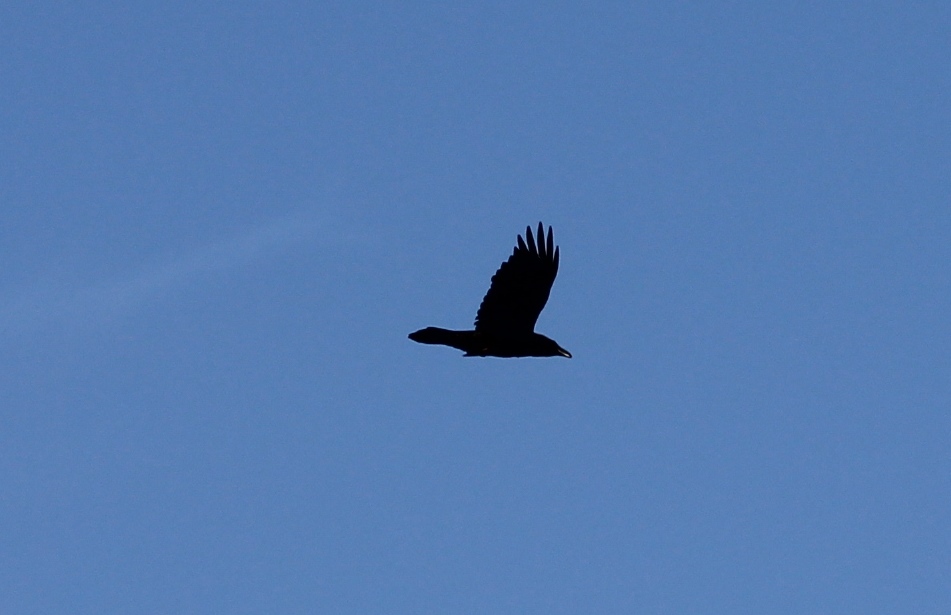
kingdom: Animalia
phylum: Chordata
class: Aves
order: Passeriformes
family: Corvidae
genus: Corvus
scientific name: Corvus corax
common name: Common raven
